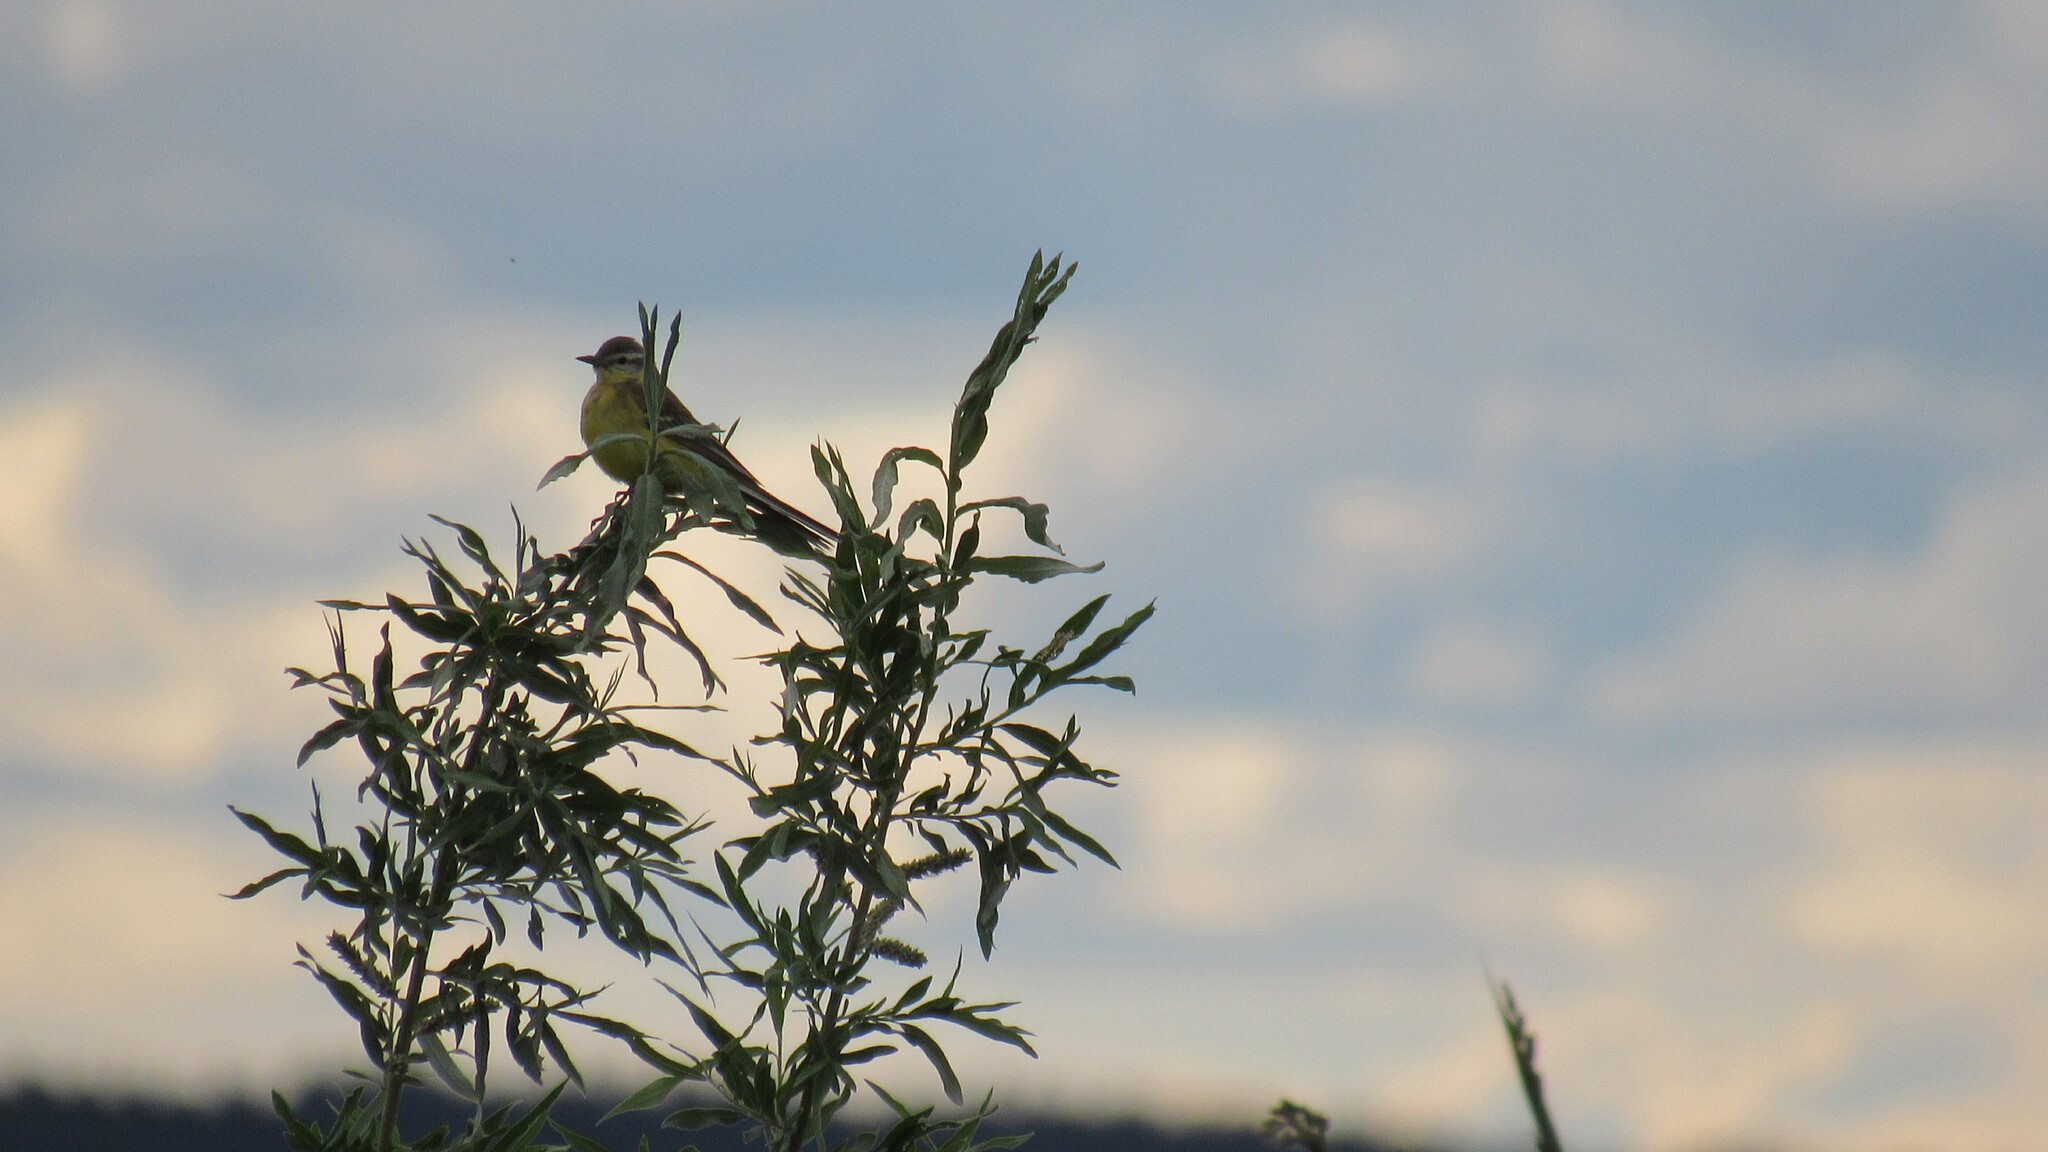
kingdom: Animalia
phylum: Chordata
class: Aves
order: Passeriformes
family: Motacillidae
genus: Motacilla
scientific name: Motacilla flava
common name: Western yellow wagtail
